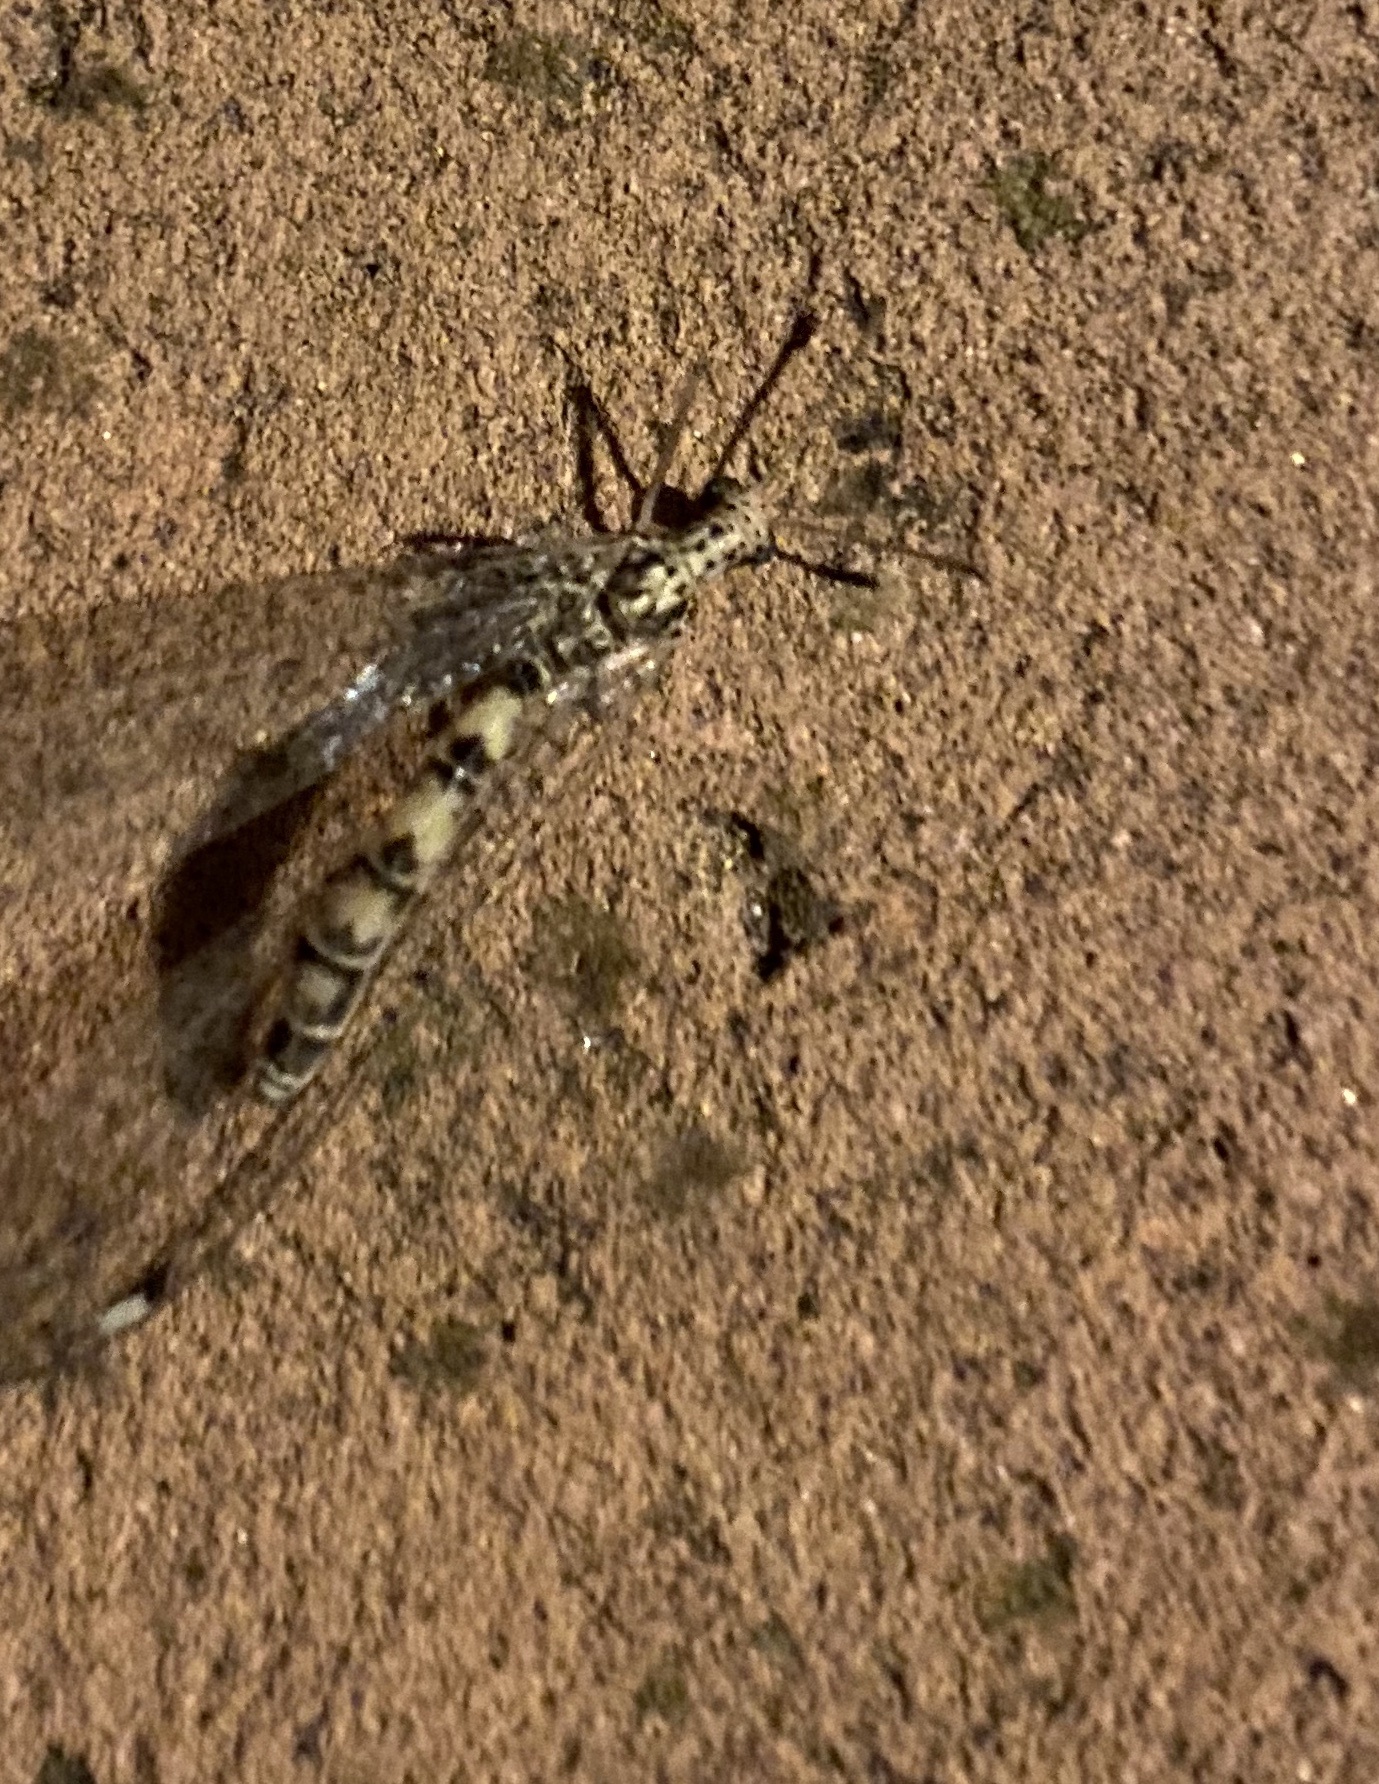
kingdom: Animalia
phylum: Arthropoda
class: Insecta
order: Neuroptera
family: Myrmeleontidae
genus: Gymnocnemia
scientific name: Gymnocnemia variegata
